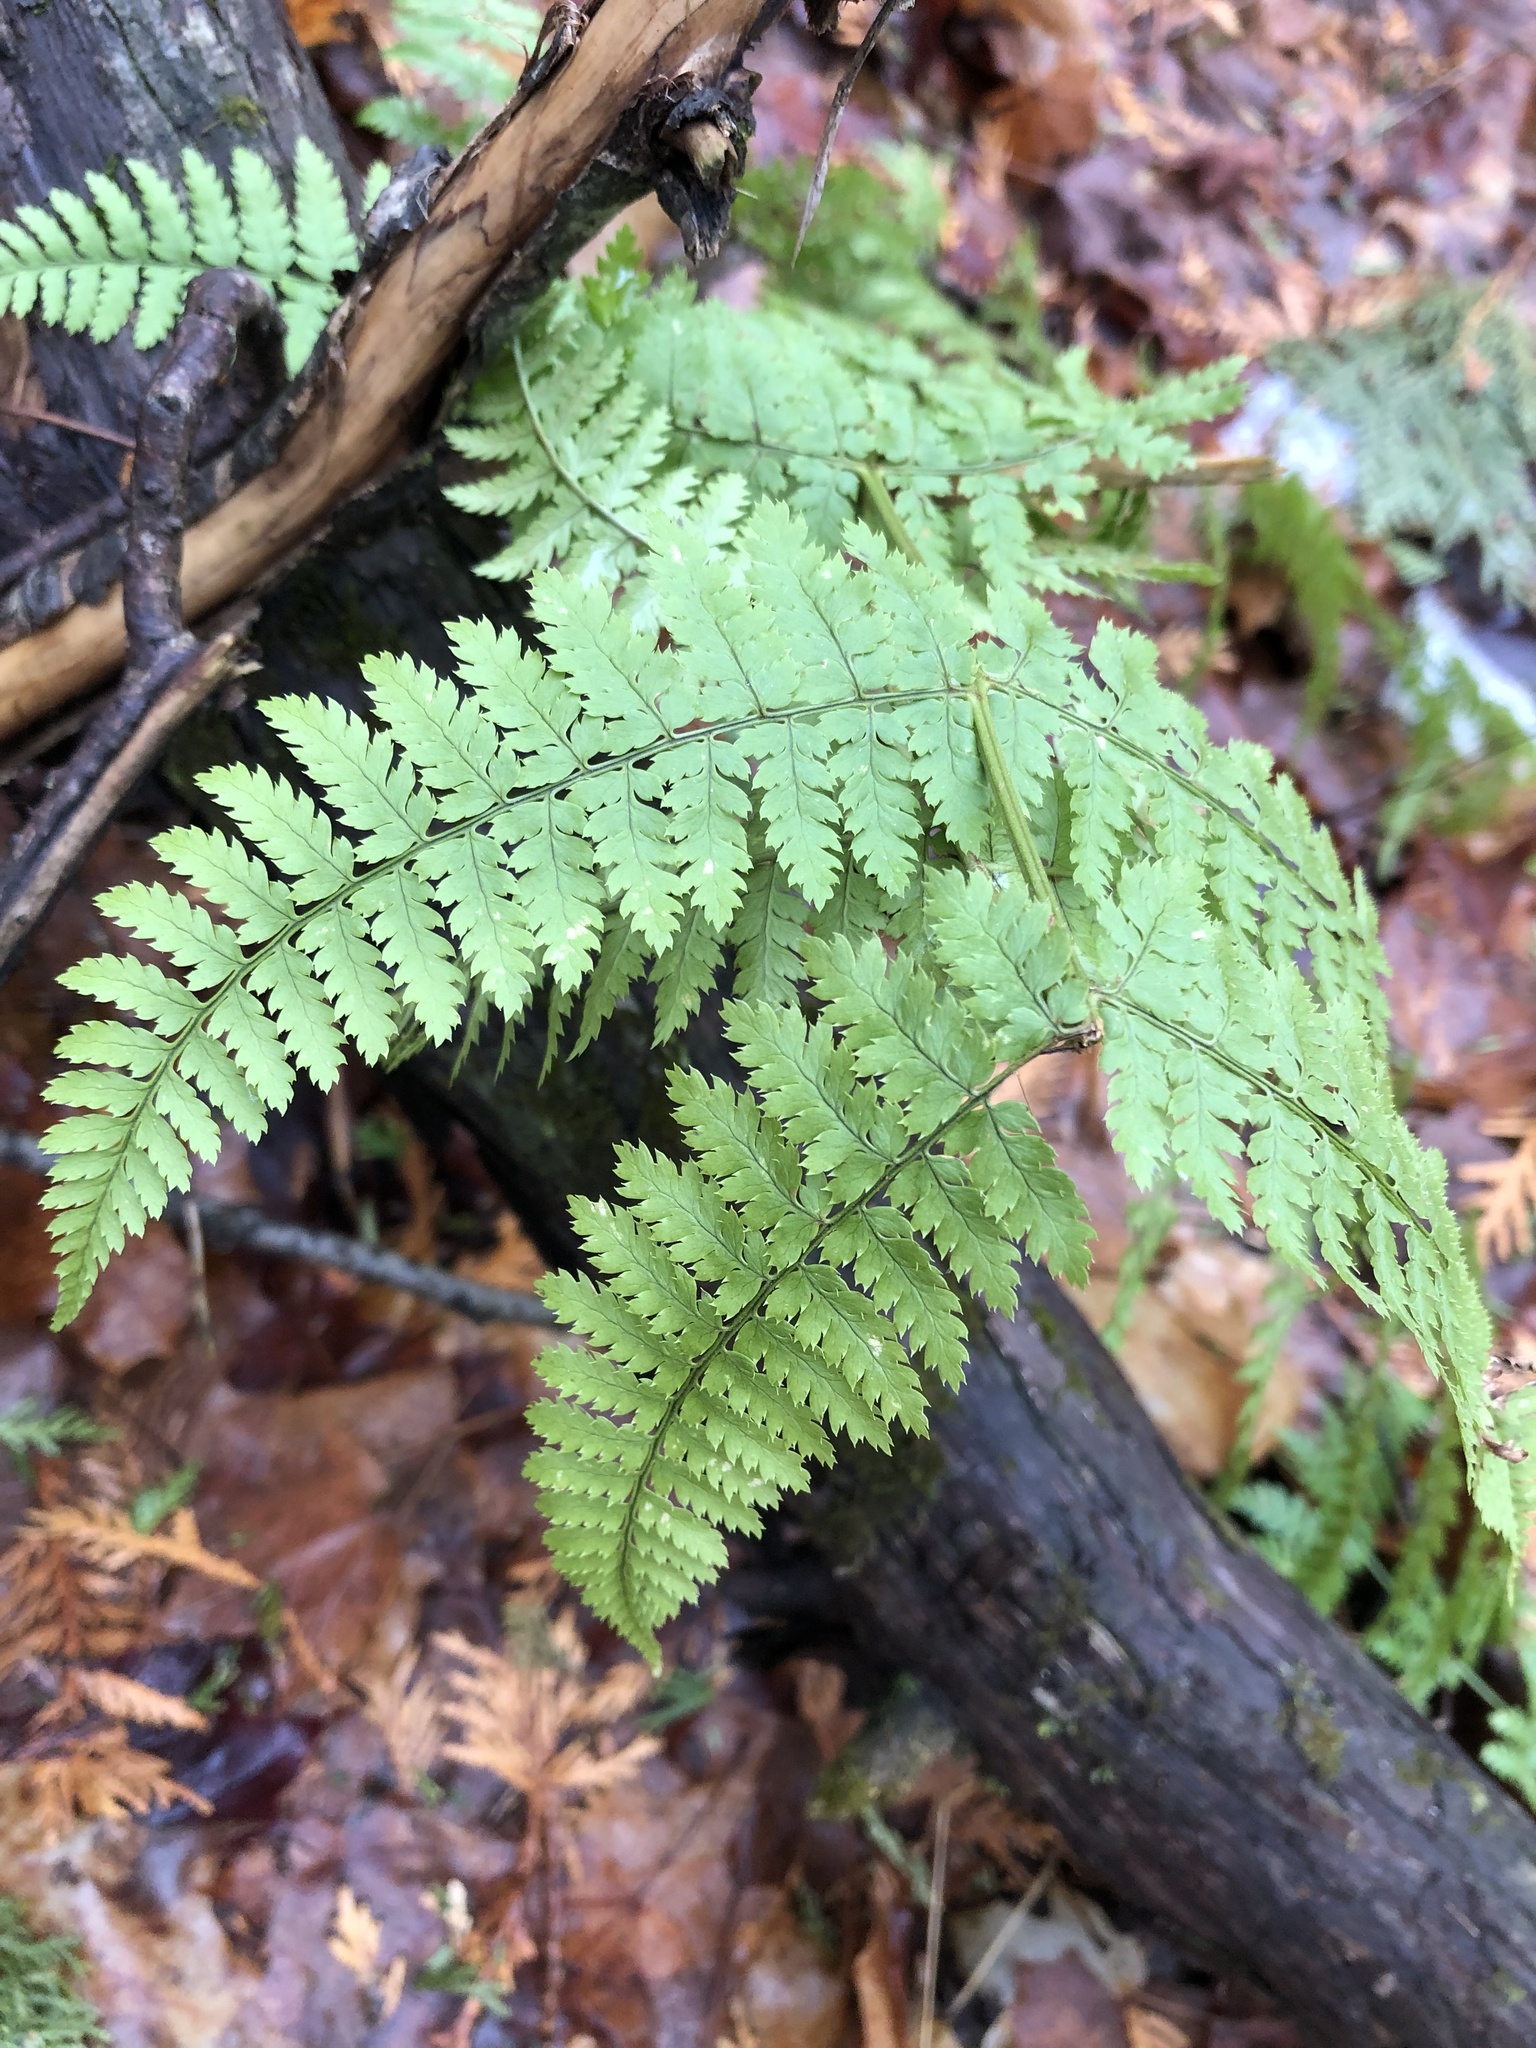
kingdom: Plantae
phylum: Tracheophyta
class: Polypodiopsida
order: Polypodiales
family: Dryopteridaceae
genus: Dryopteris
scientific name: Dryopteris intermedia
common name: Evergreen wood fern
